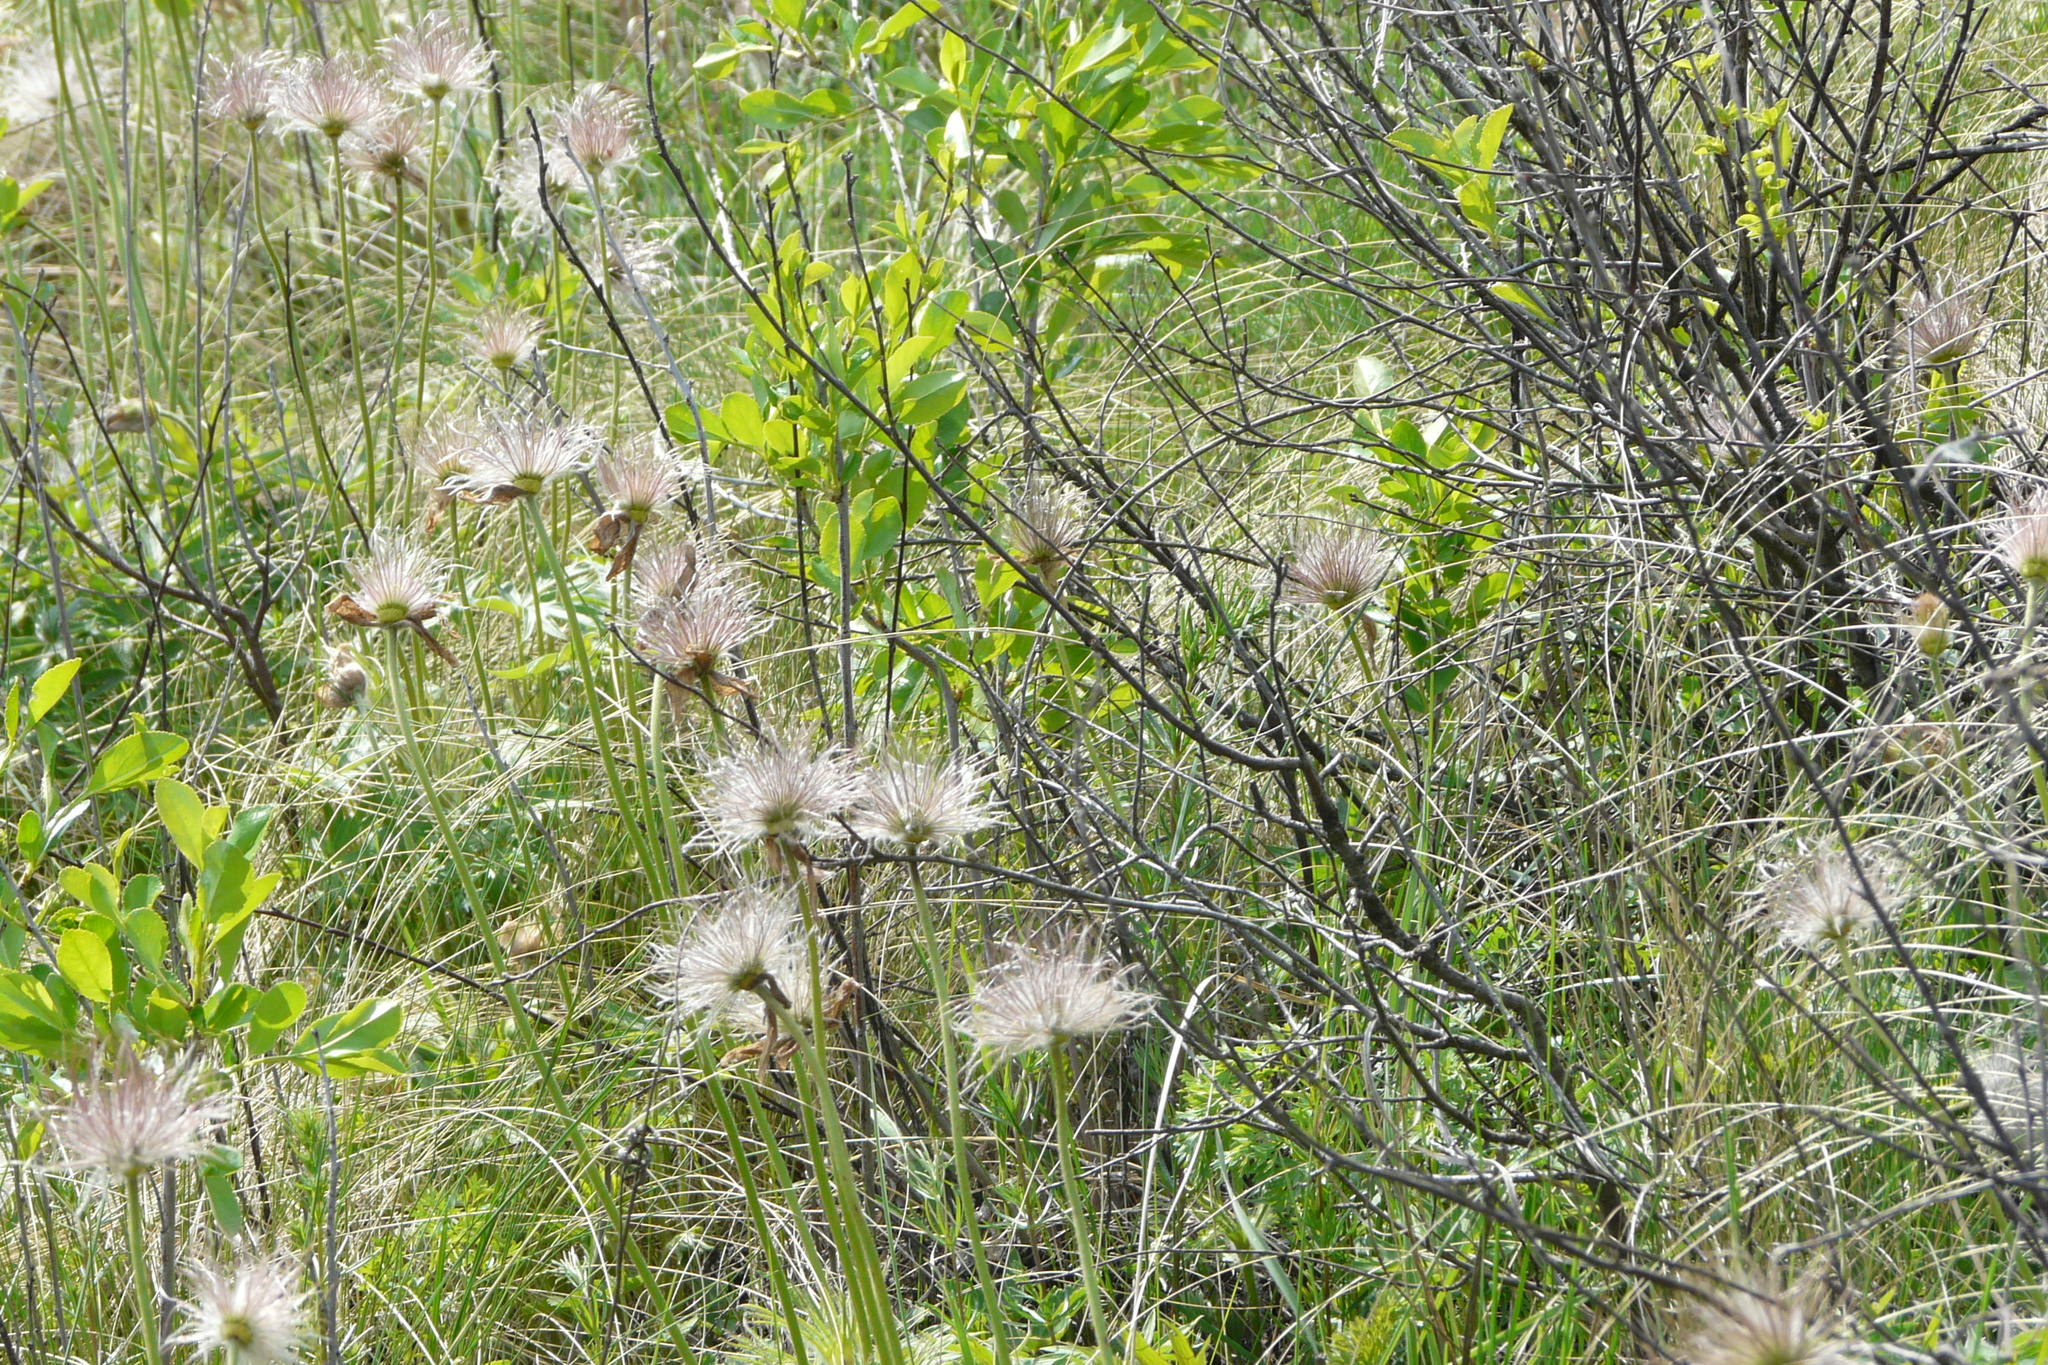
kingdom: Plantae
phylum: Tracheophyta
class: Magnoliopsida
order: Ranunculales
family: Ranunculaceae
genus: Pulsatilla
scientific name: Pulsatilla patens
